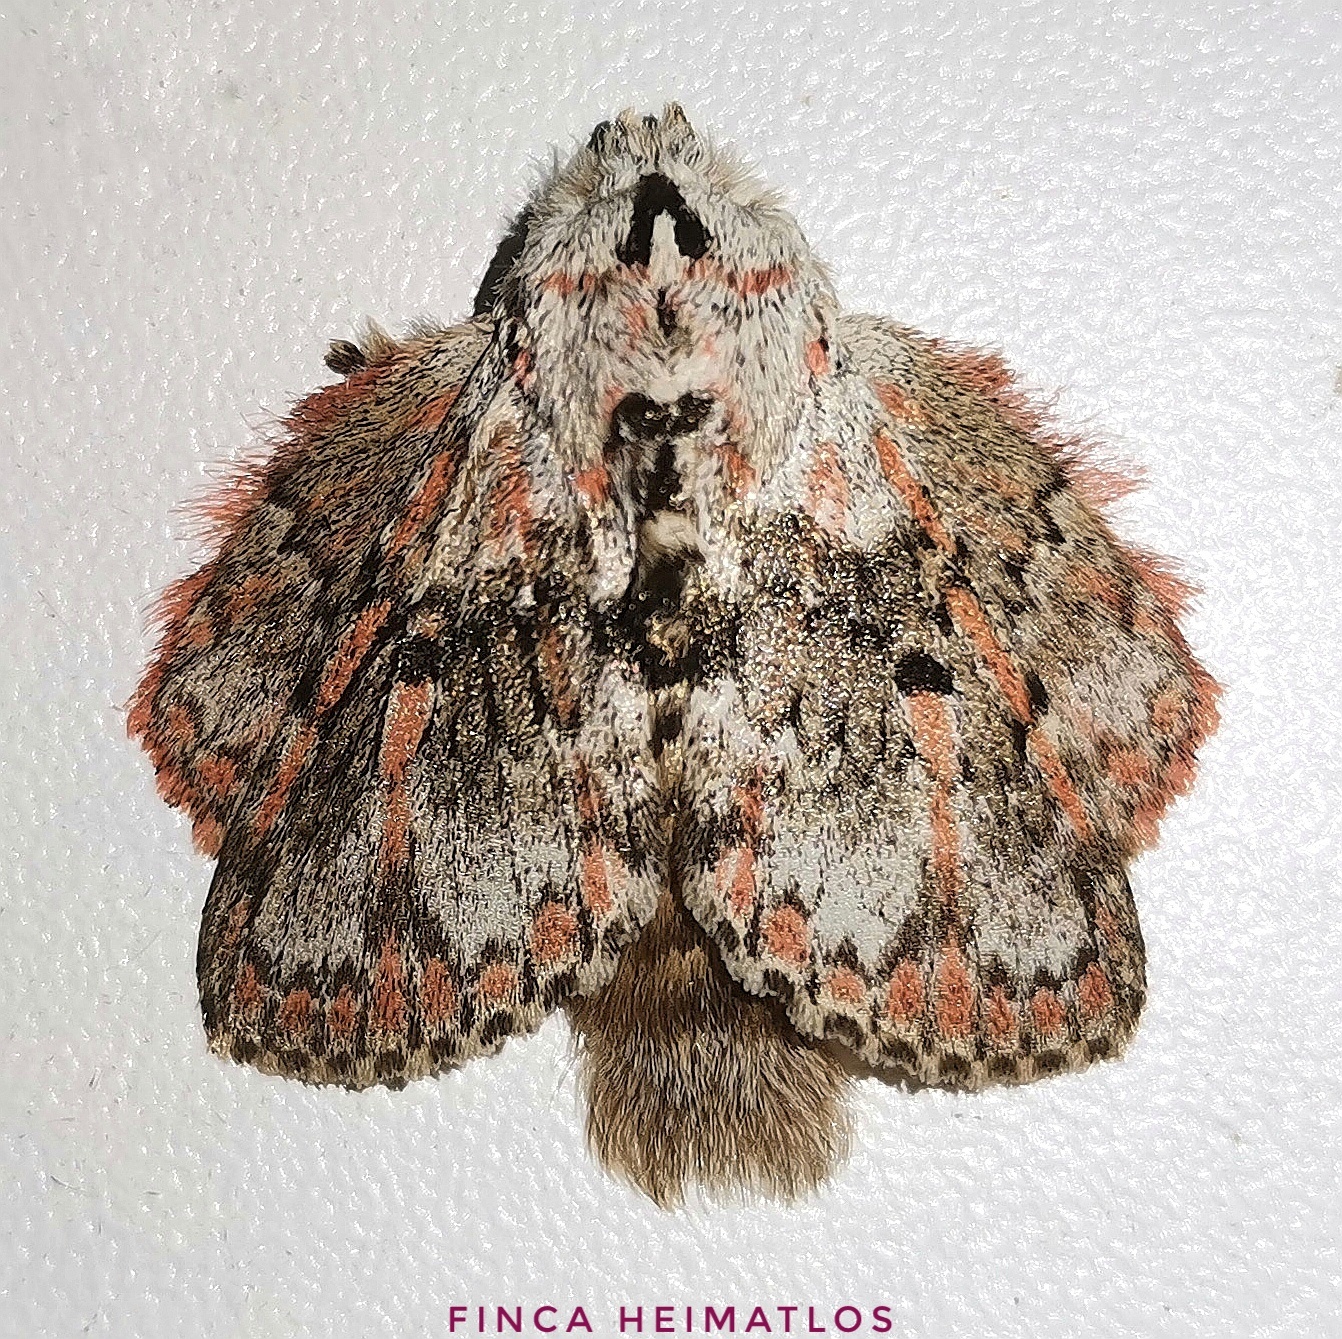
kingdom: Animalia
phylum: Arthropoda
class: Insecta
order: Lepidoptera
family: Lasiocampidae
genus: Euglyphis
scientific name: Euglyphis gibea
